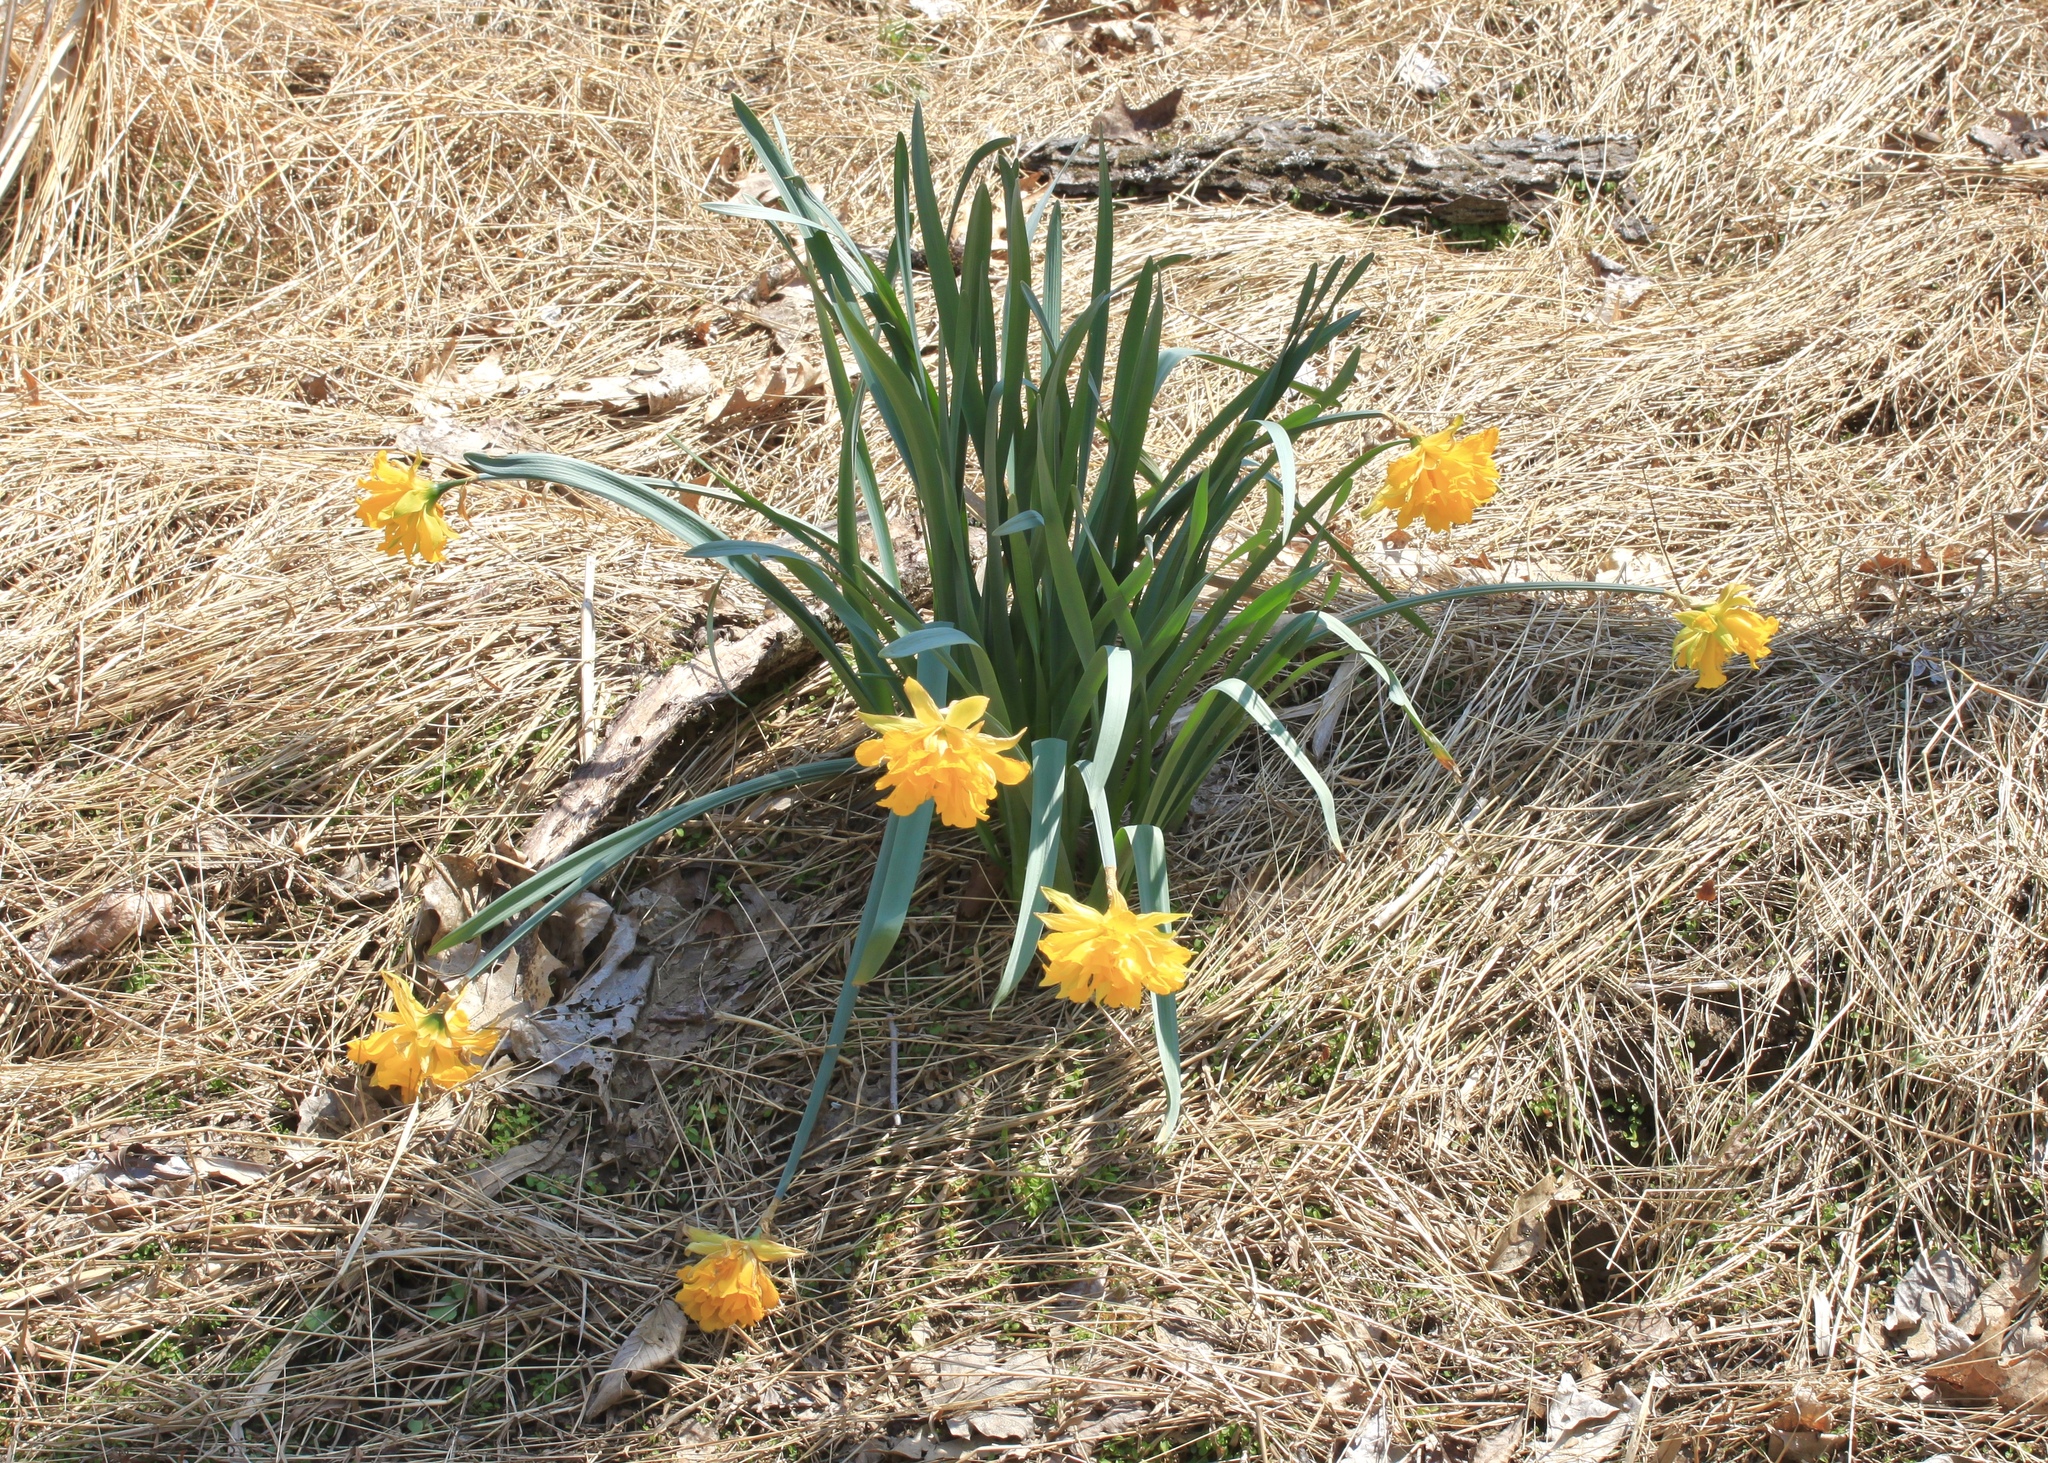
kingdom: Plantae
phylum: Tracheophyta
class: Liliopsida
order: Asparagales
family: Amaryllidaceae
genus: Narcissus
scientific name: Narcissus pseudonarcissus
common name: Daffodil
